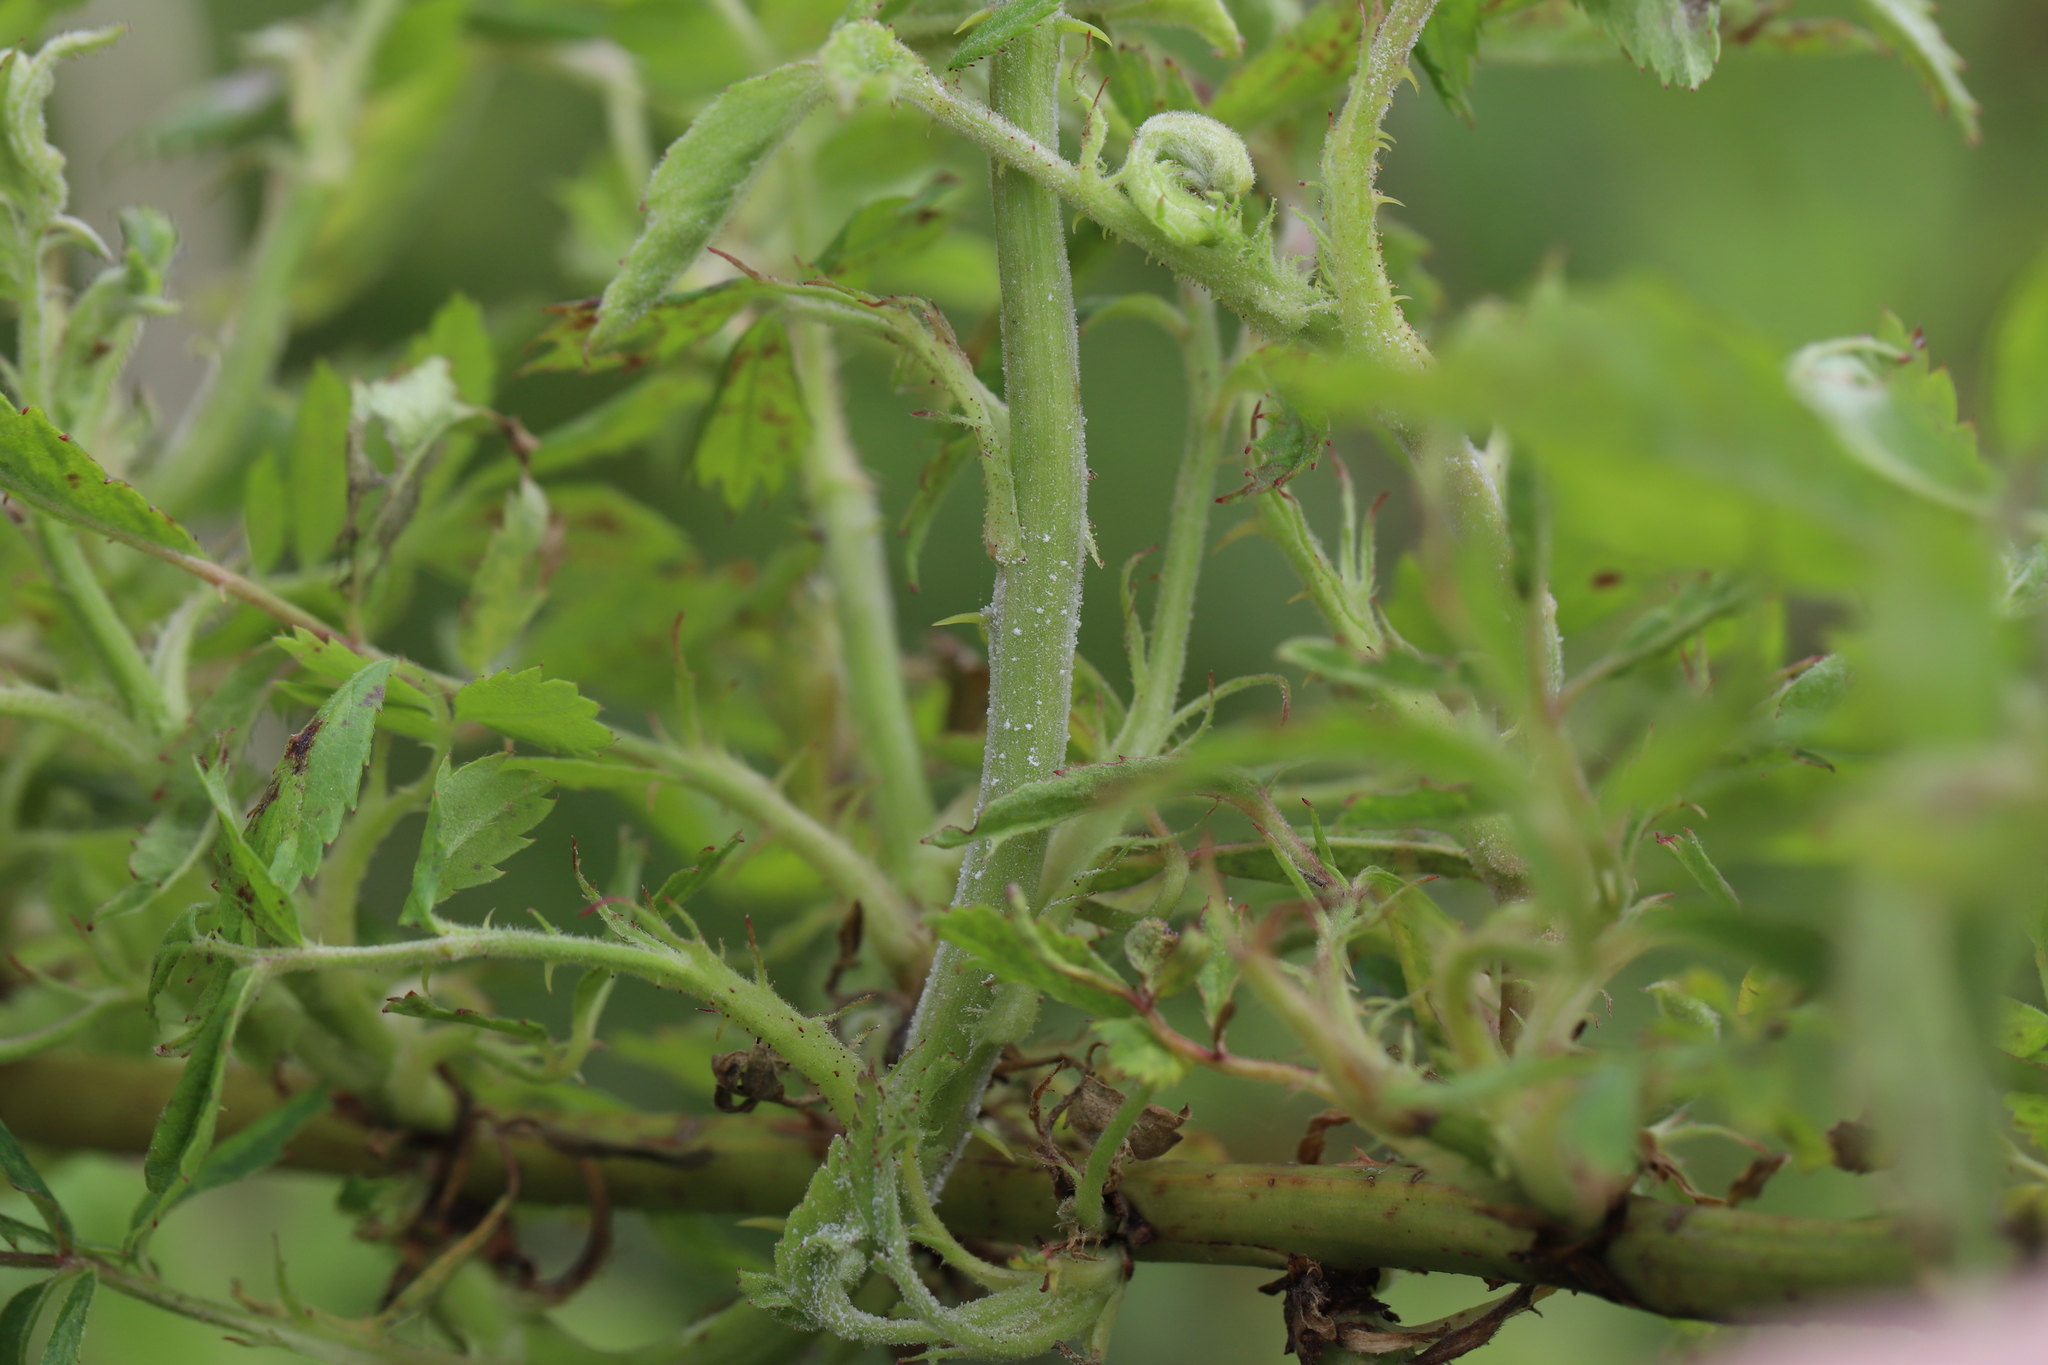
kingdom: Animalia
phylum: Arthropoda
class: Arachnida
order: Trombidiformes
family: Eriophyidae
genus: Phyllocoptes
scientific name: Phyllocoptes
